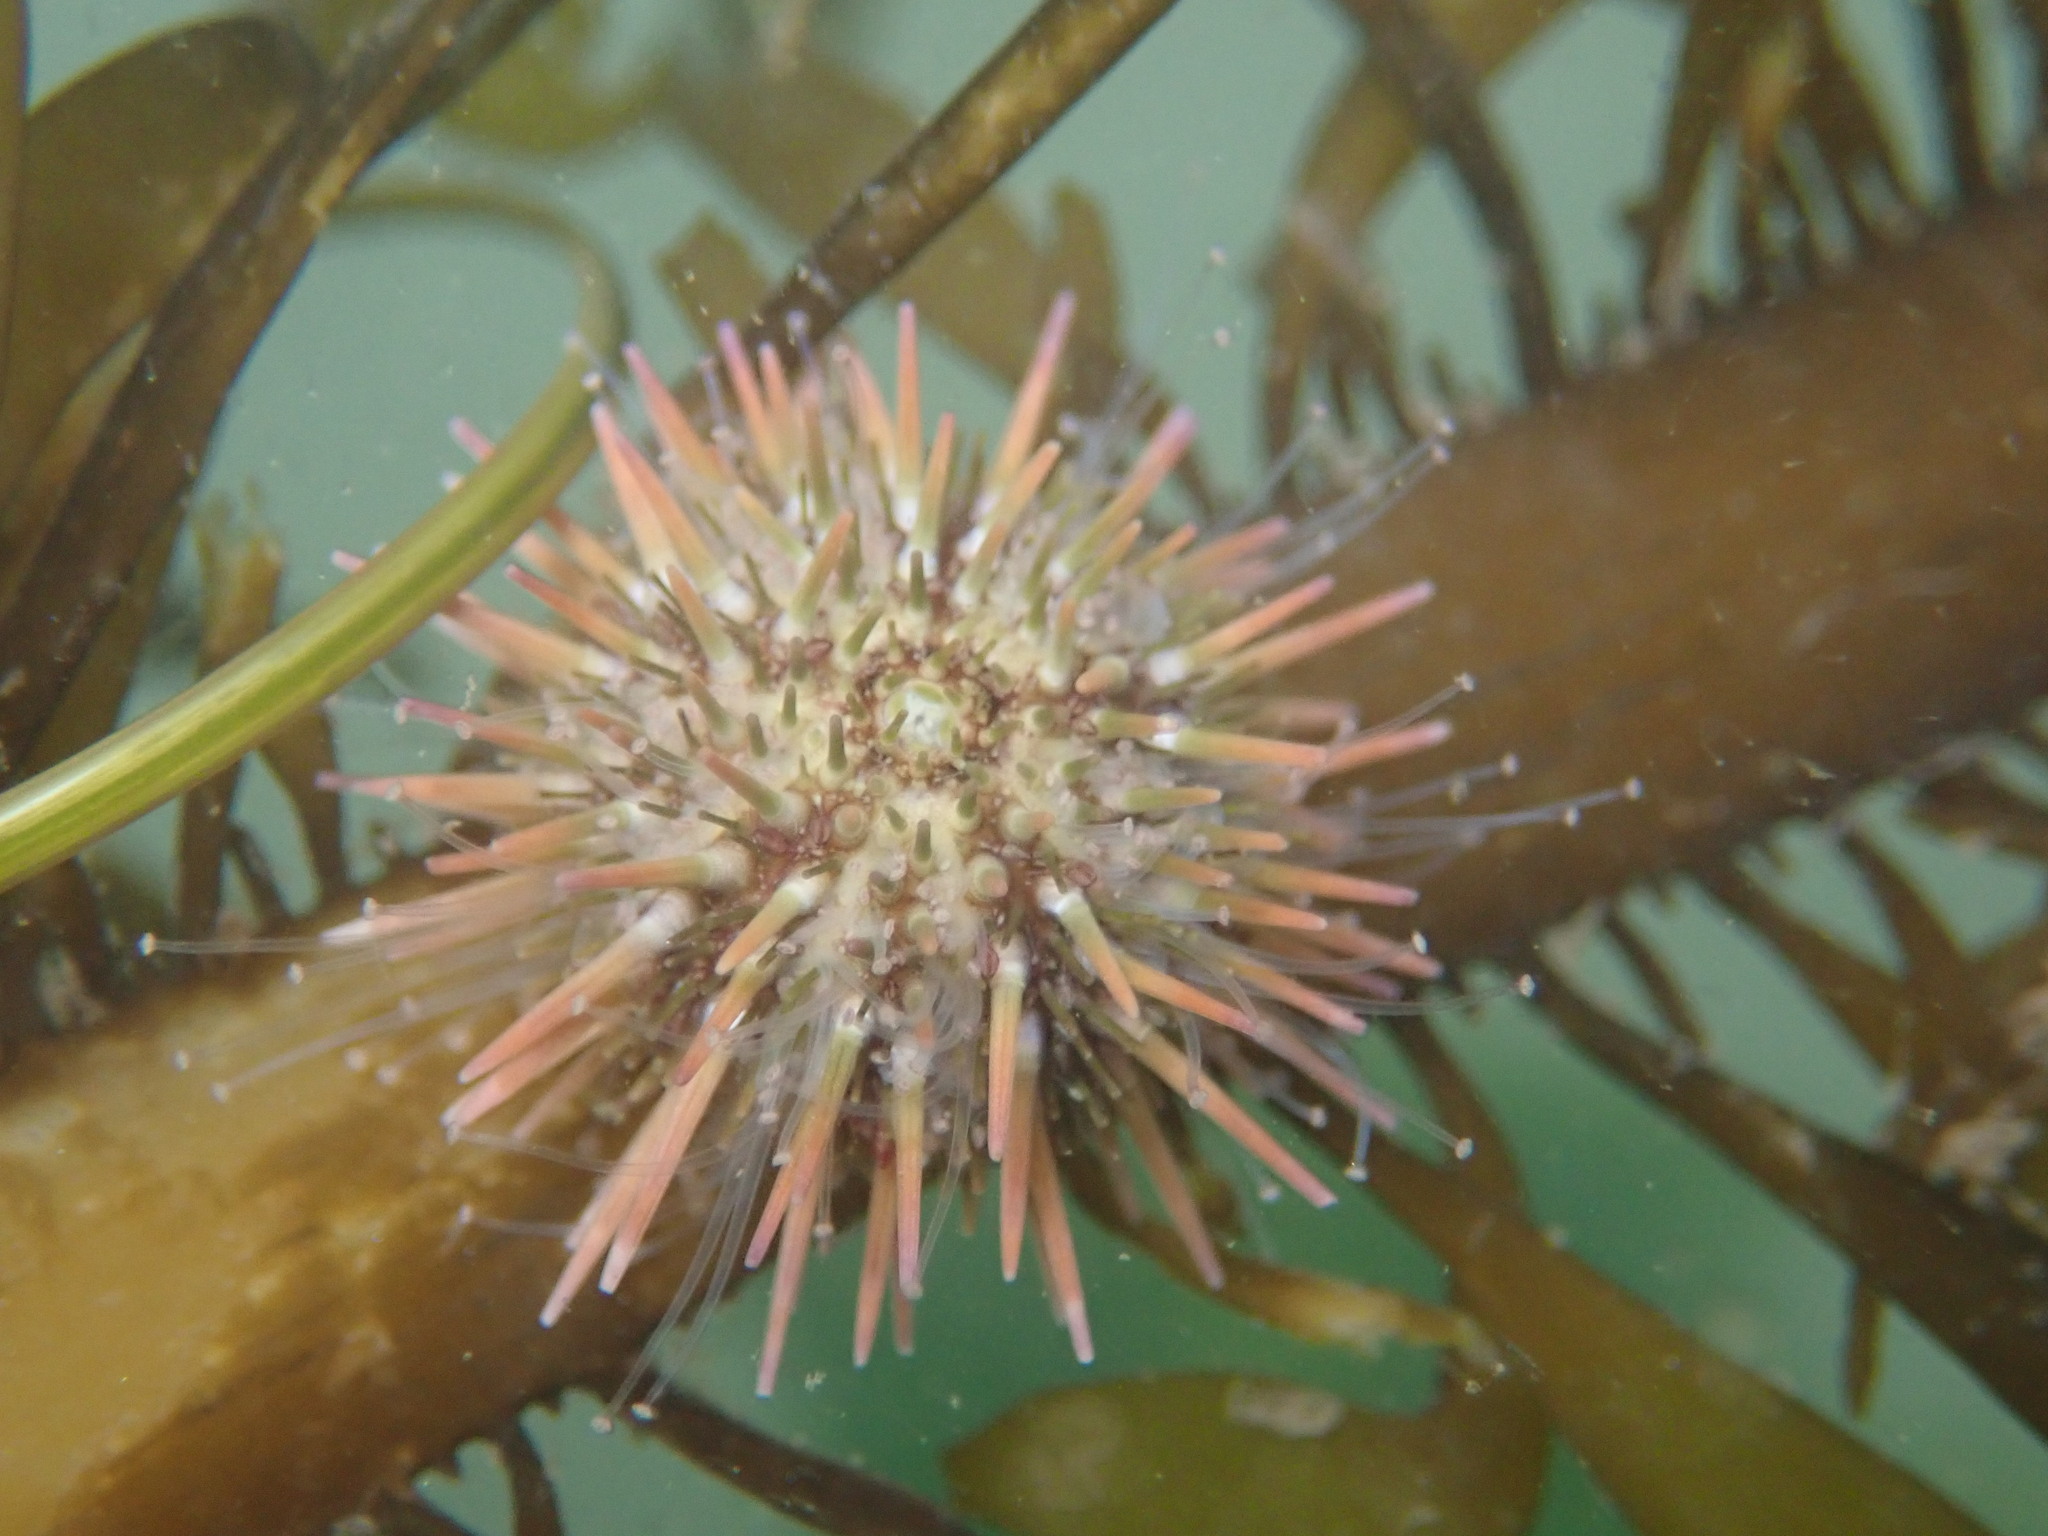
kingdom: Animalia
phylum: Echinodermata
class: Echinoidea
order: Camarodonta
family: Strongylocentrotidae
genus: Strongylocentrotus
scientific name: Strongylocentrotus purpuratus
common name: Purple sea urchin
